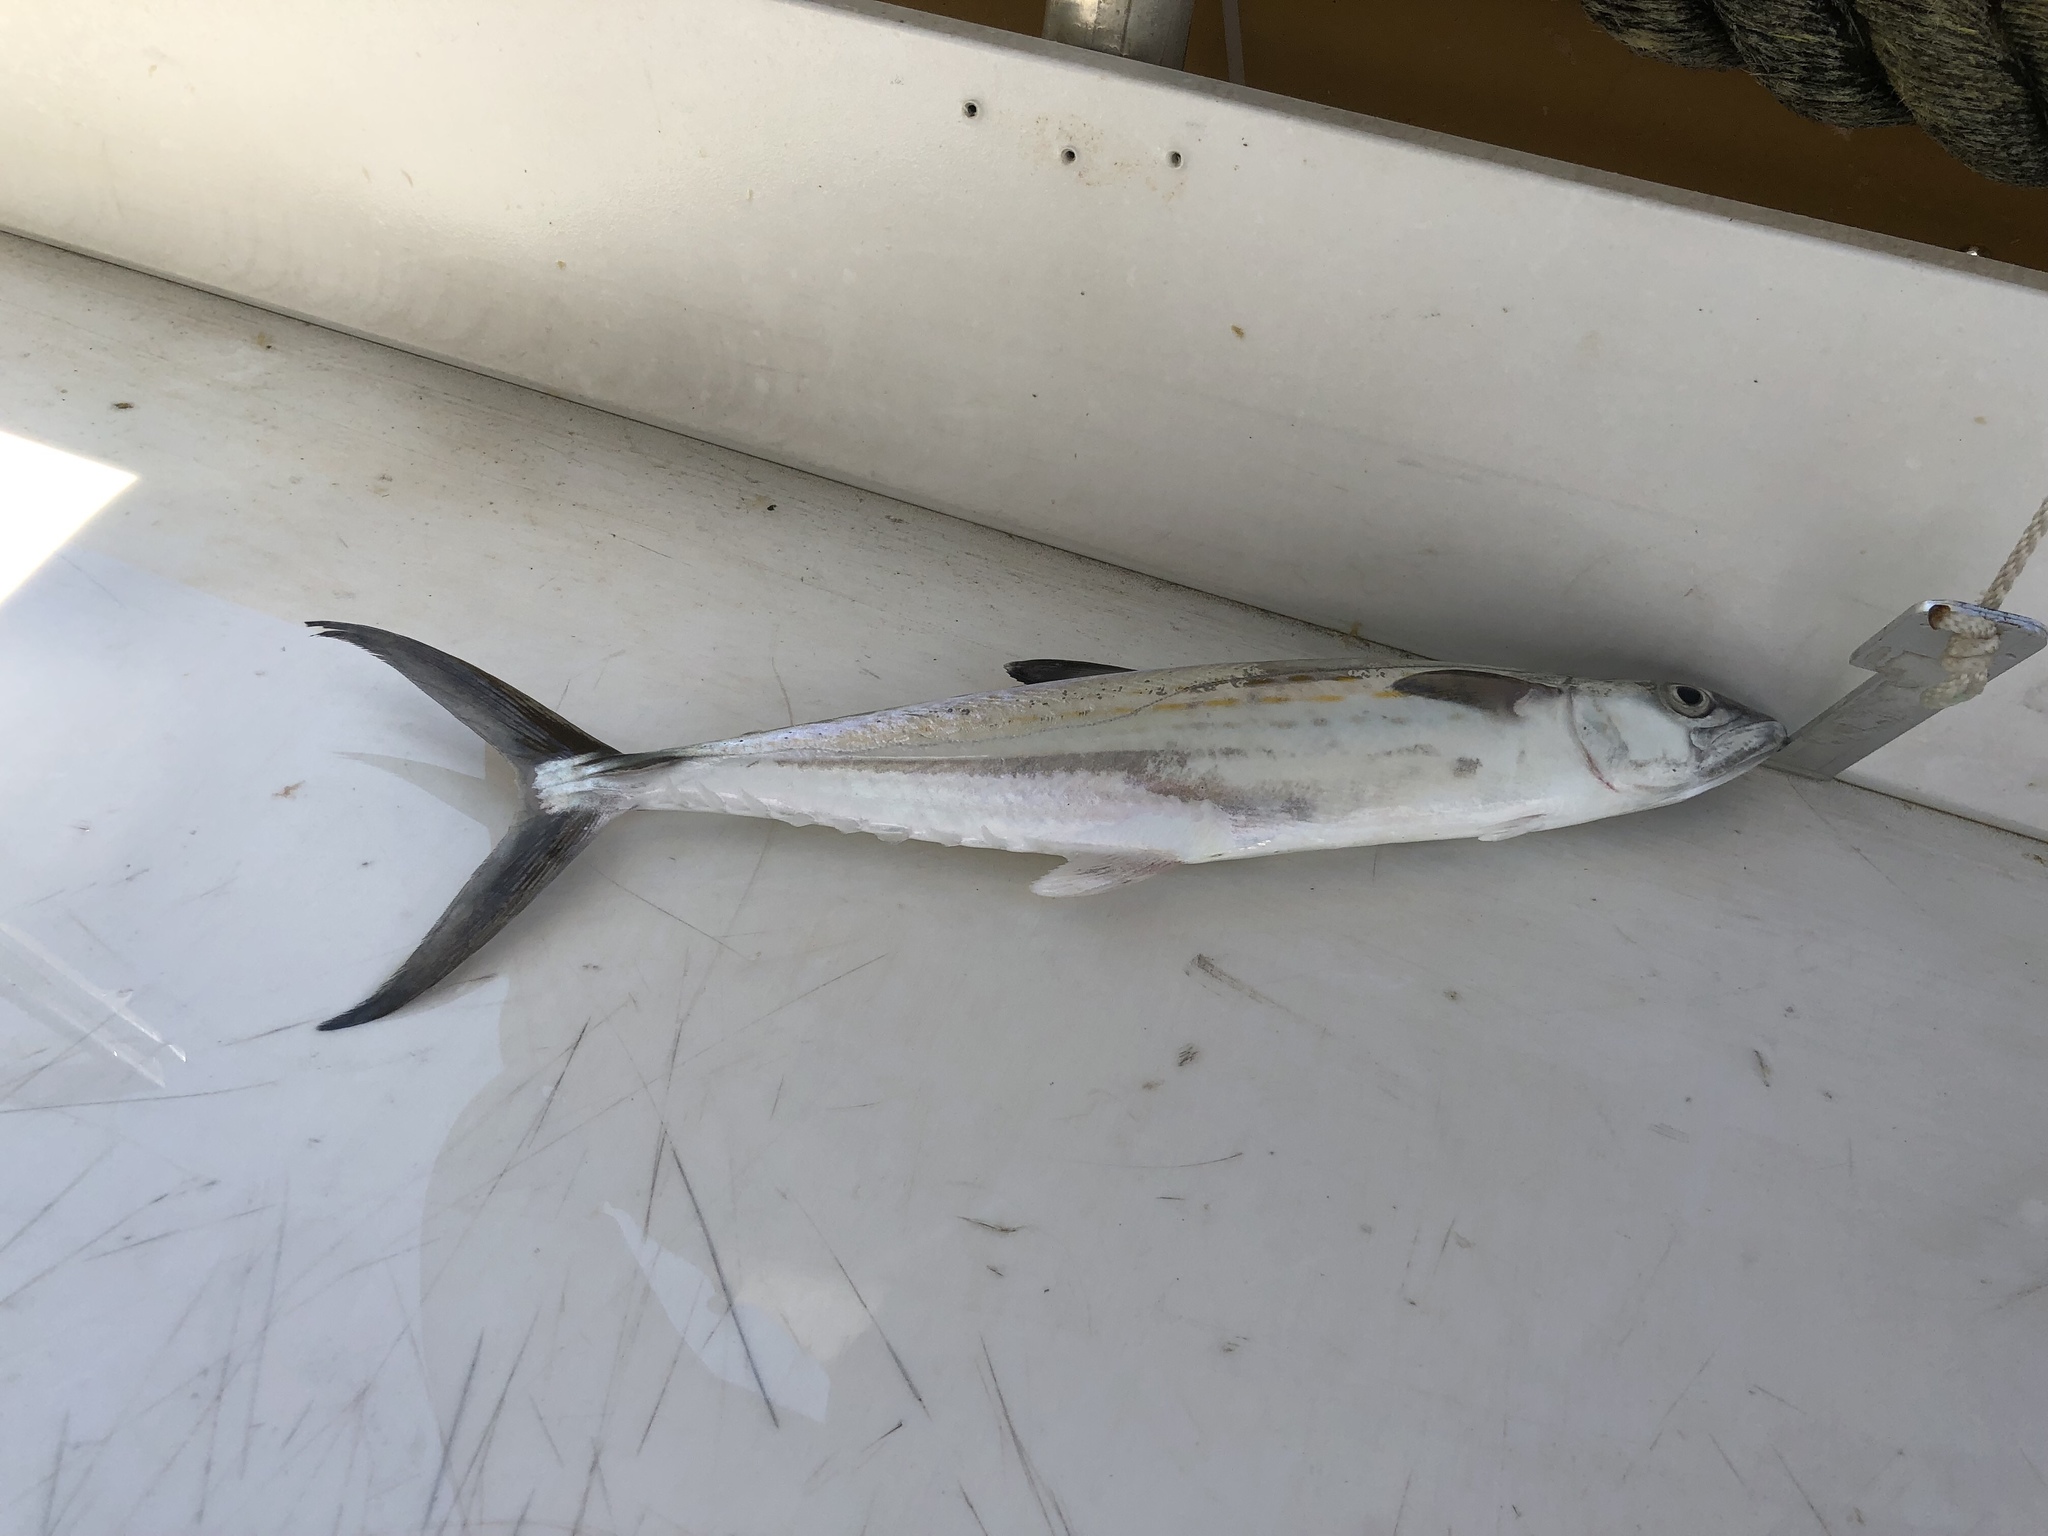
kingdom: Animalia
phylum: Chordata
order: Perciformes
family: Scombridae
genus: Scomberomorus
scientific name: Scomberomorus regalis
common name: Cero
